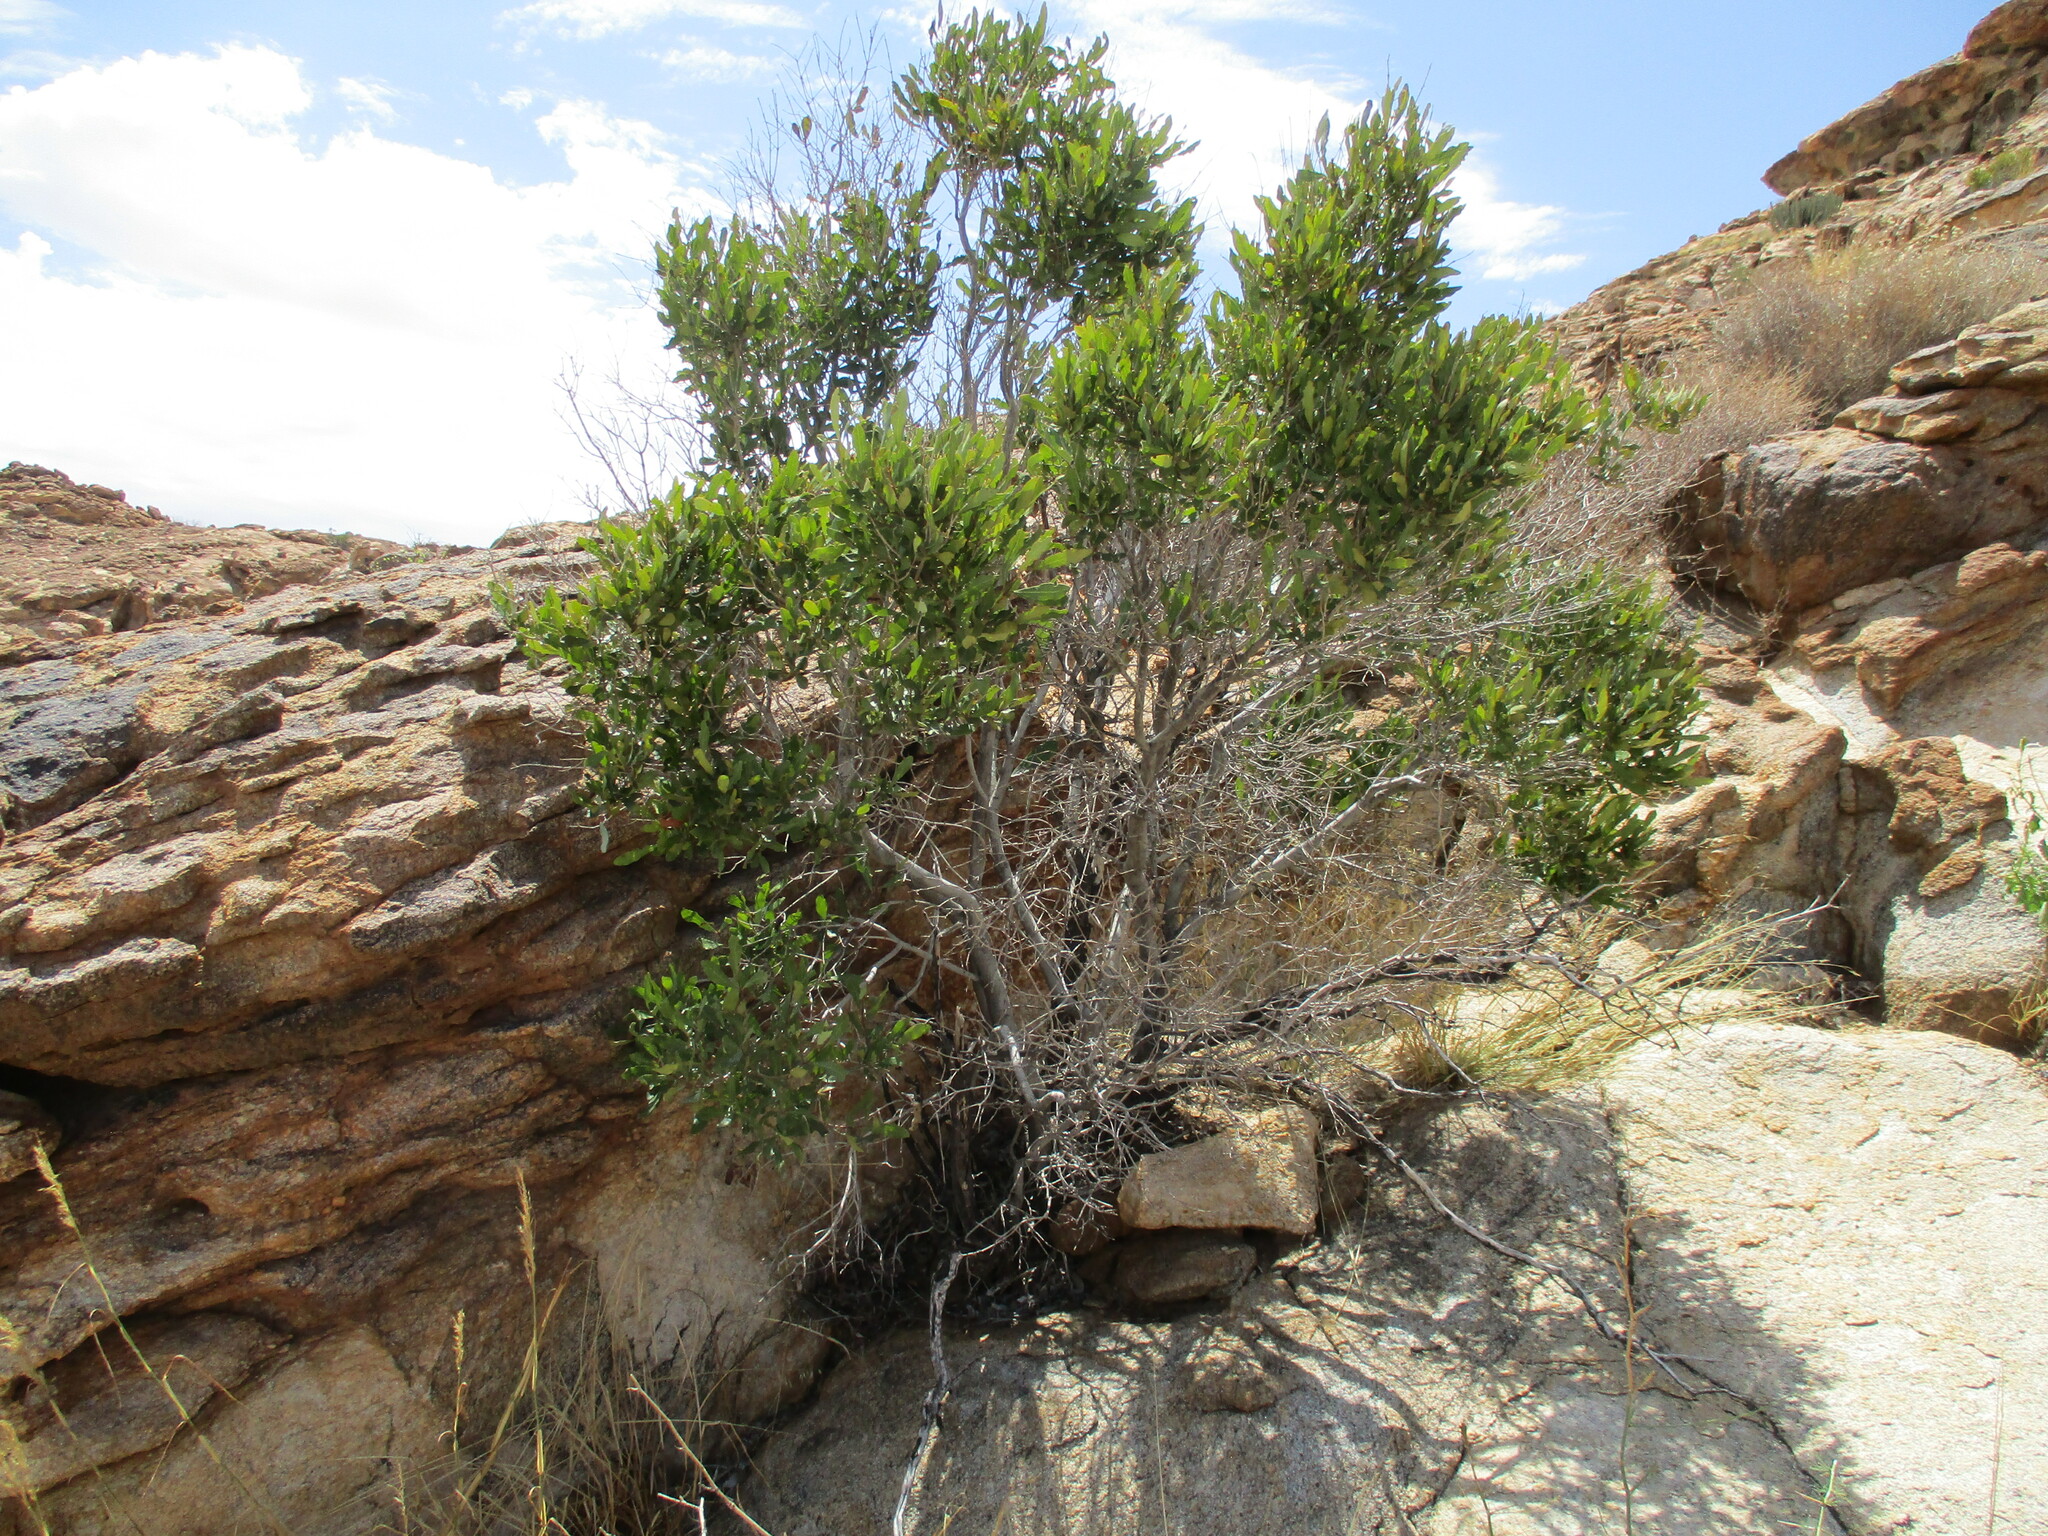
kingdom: Plantae
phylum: Tracheophyta
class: Magnoliopsida
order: Ericales
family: Ebenaceae
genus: Euclea
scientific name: Euclea undulata
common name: Small-leaved guarri
